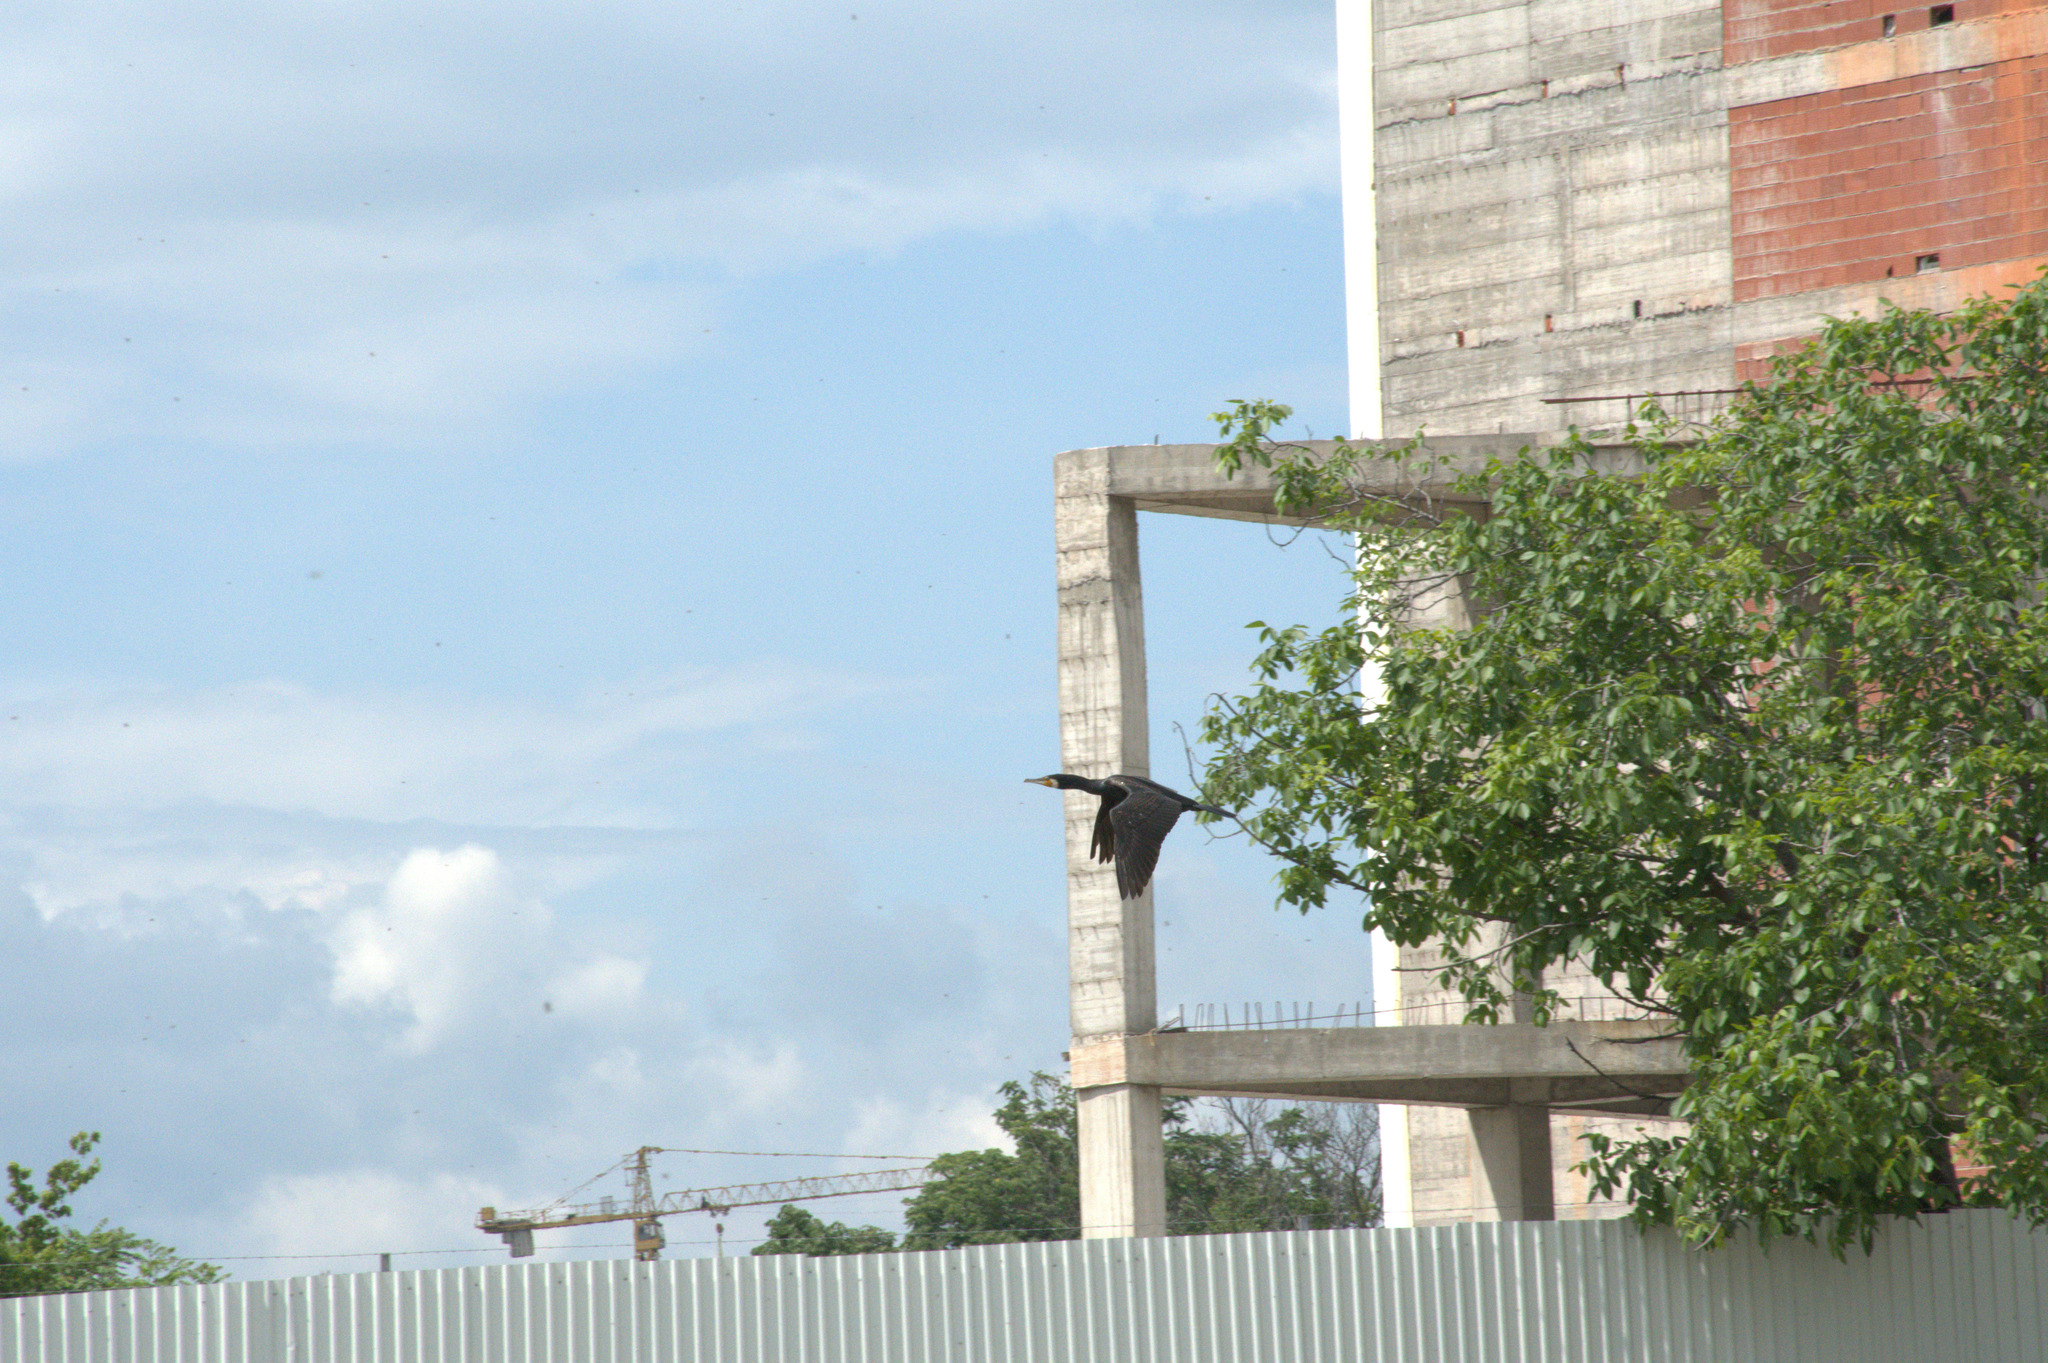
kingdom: Animalia
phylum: Chordata
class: Aves
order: Suliformes
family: Phalacrocoracidae
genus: Phalacrocorax
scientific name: Phalacrocorax carbo
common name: Great cormorant
